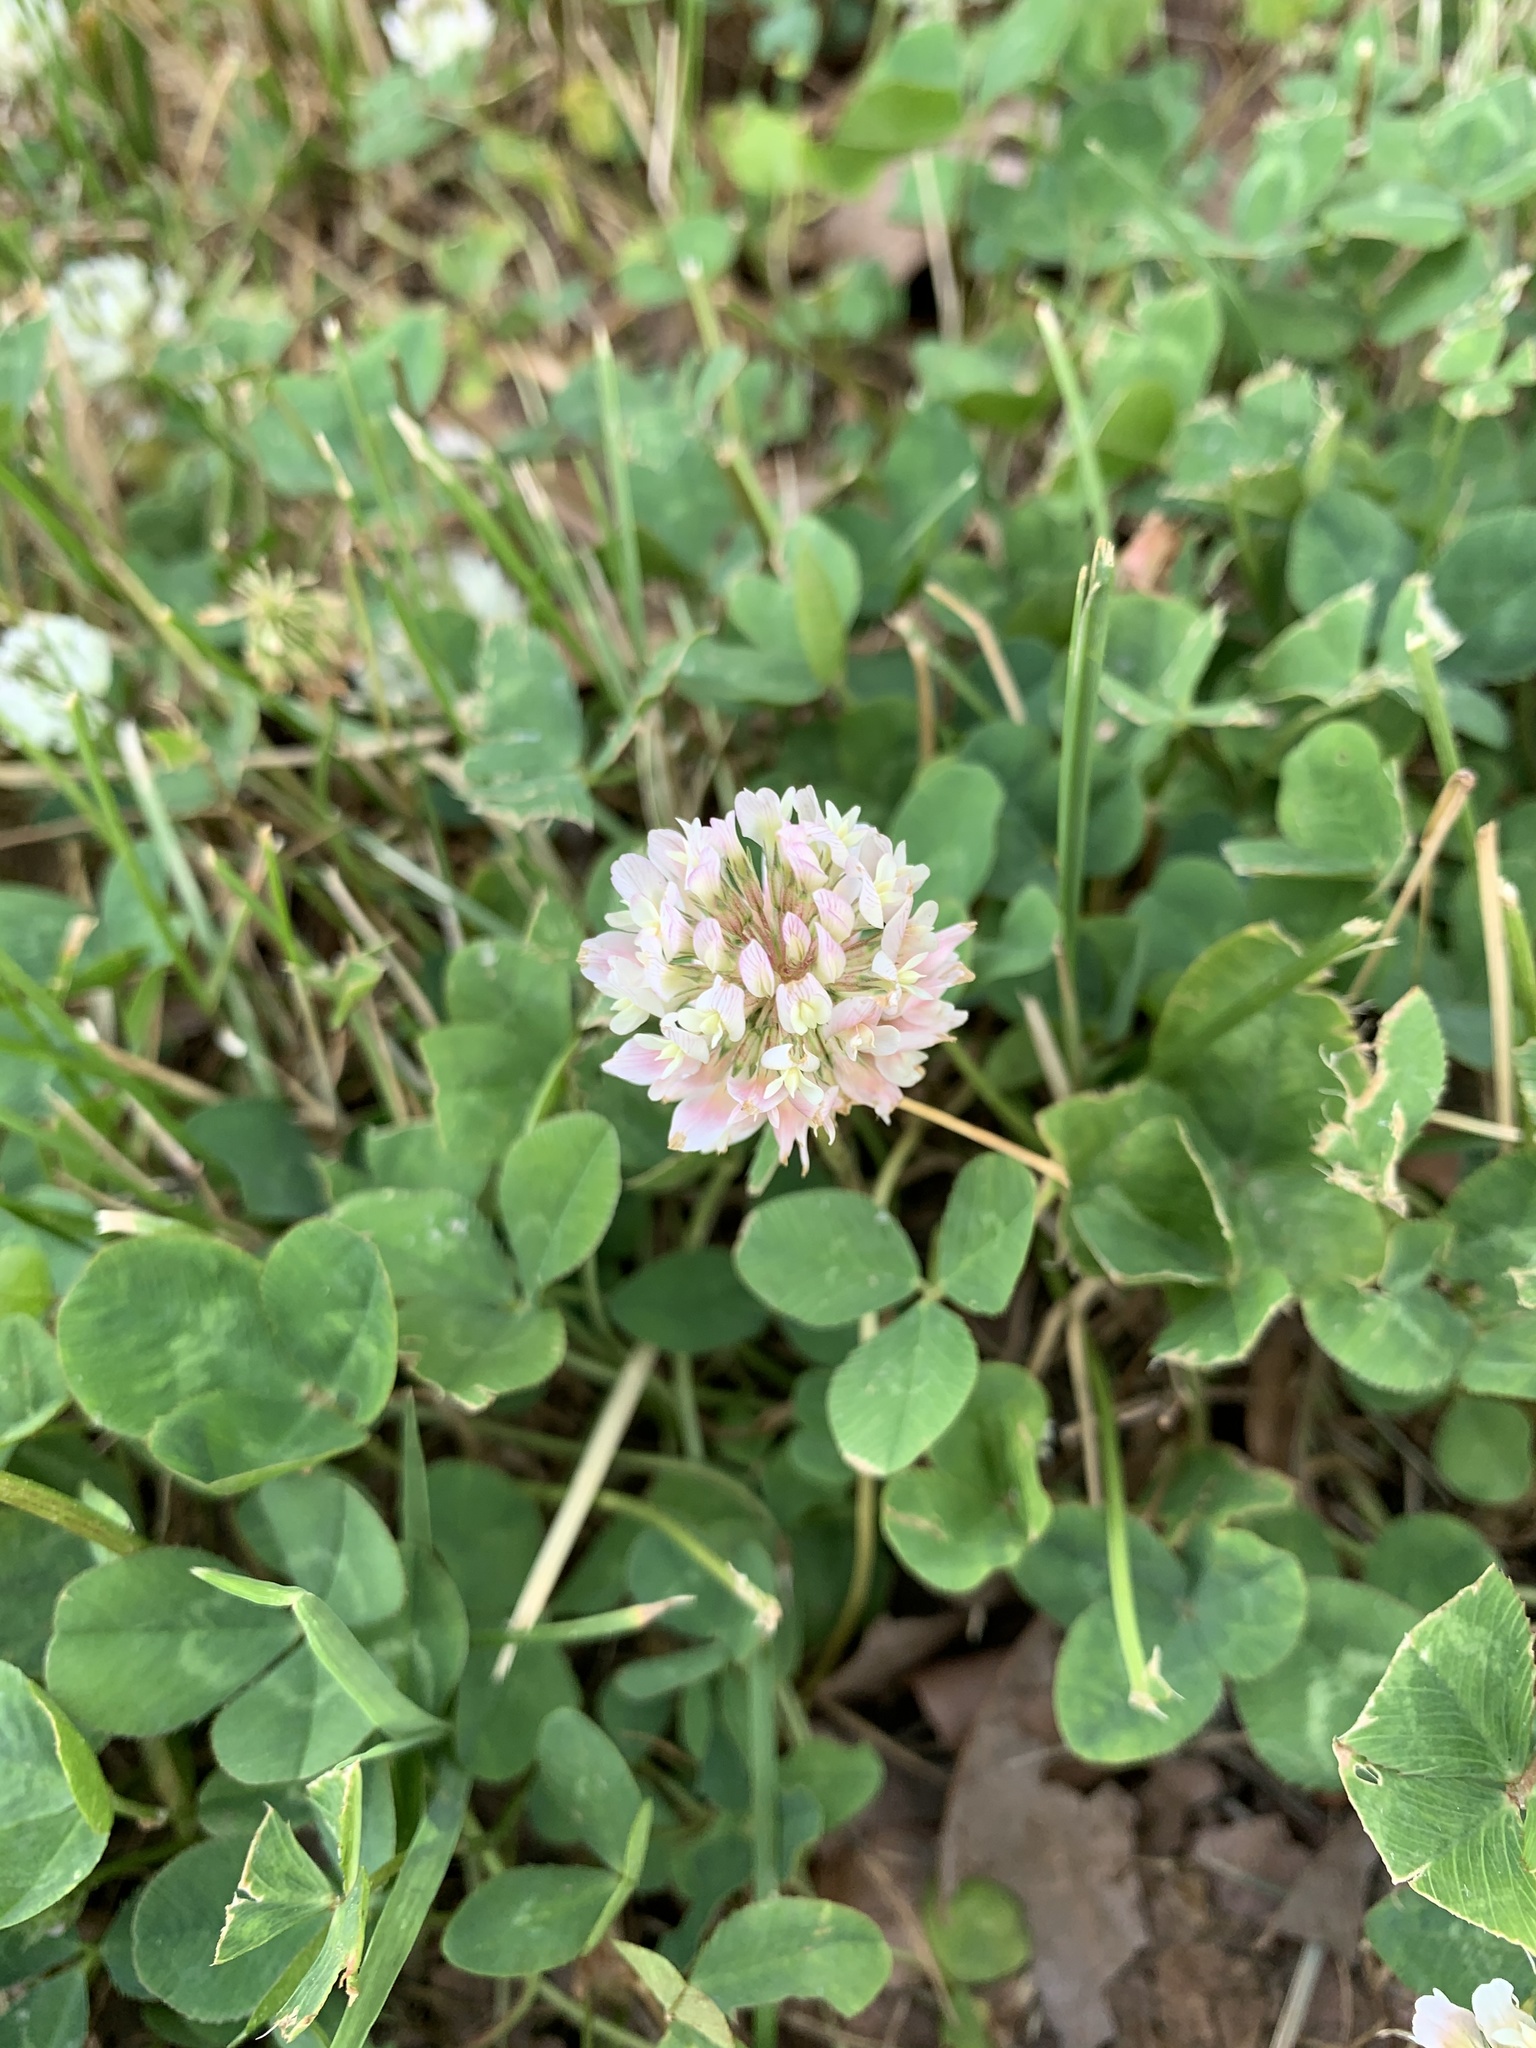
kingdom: Plantae
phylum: Tracheophyta
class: Magnoliopsida
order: Fabales
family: Fabaceae
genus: Trifolium
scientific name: Trifolium repens
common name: White clover
